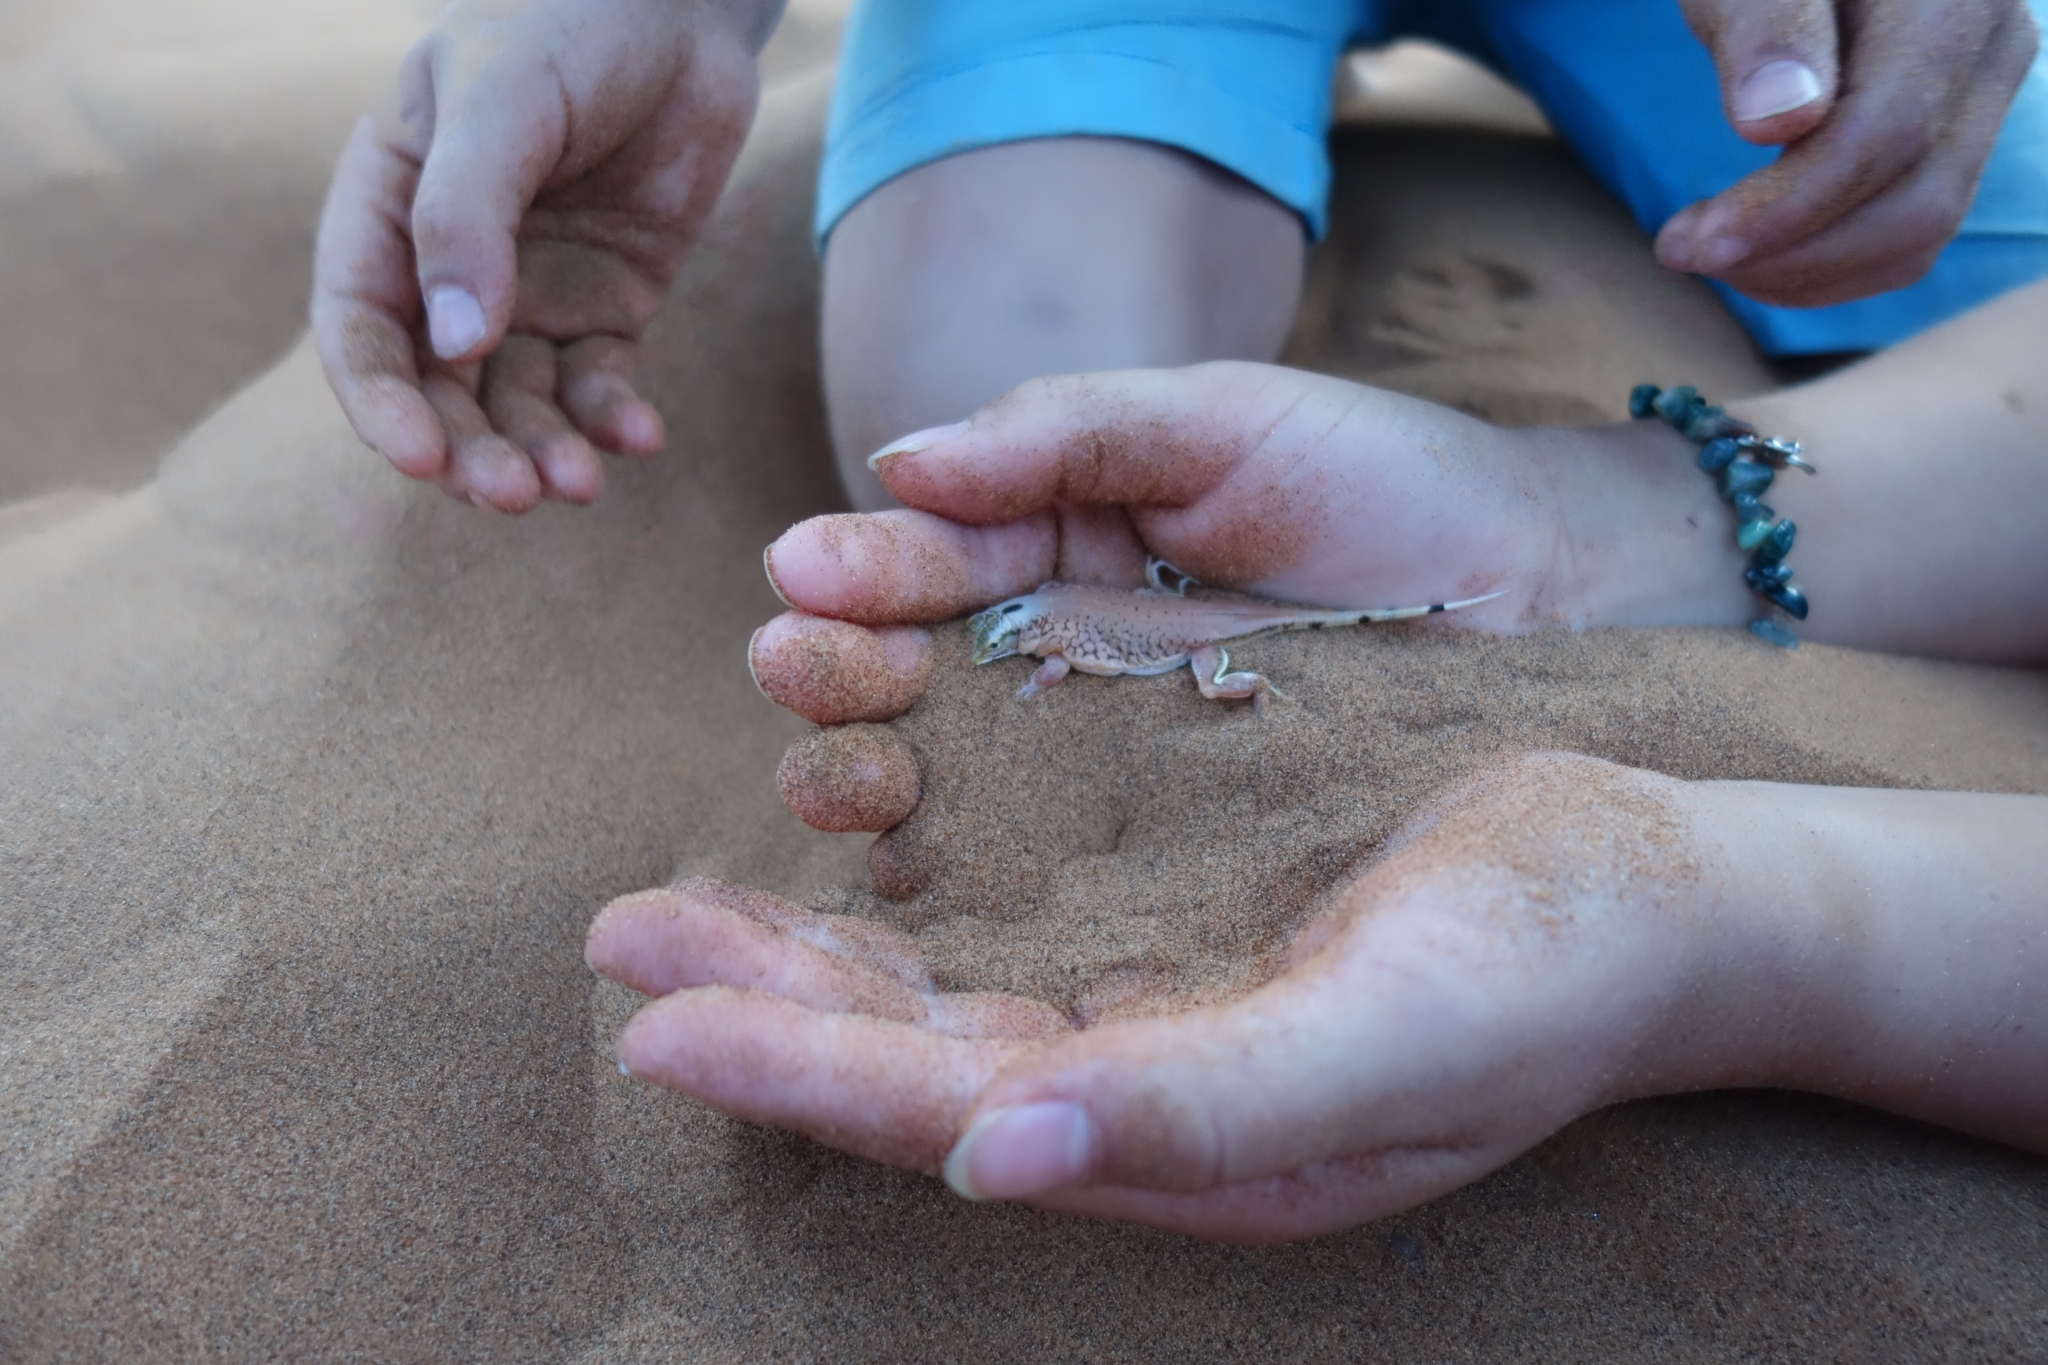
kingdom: Animalia
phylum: Chordata
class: Squamata
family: Lacertidae
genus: Meroles
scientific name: Meroles anchietae
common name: Anchieta’s dune or shovel-snouted lizard
